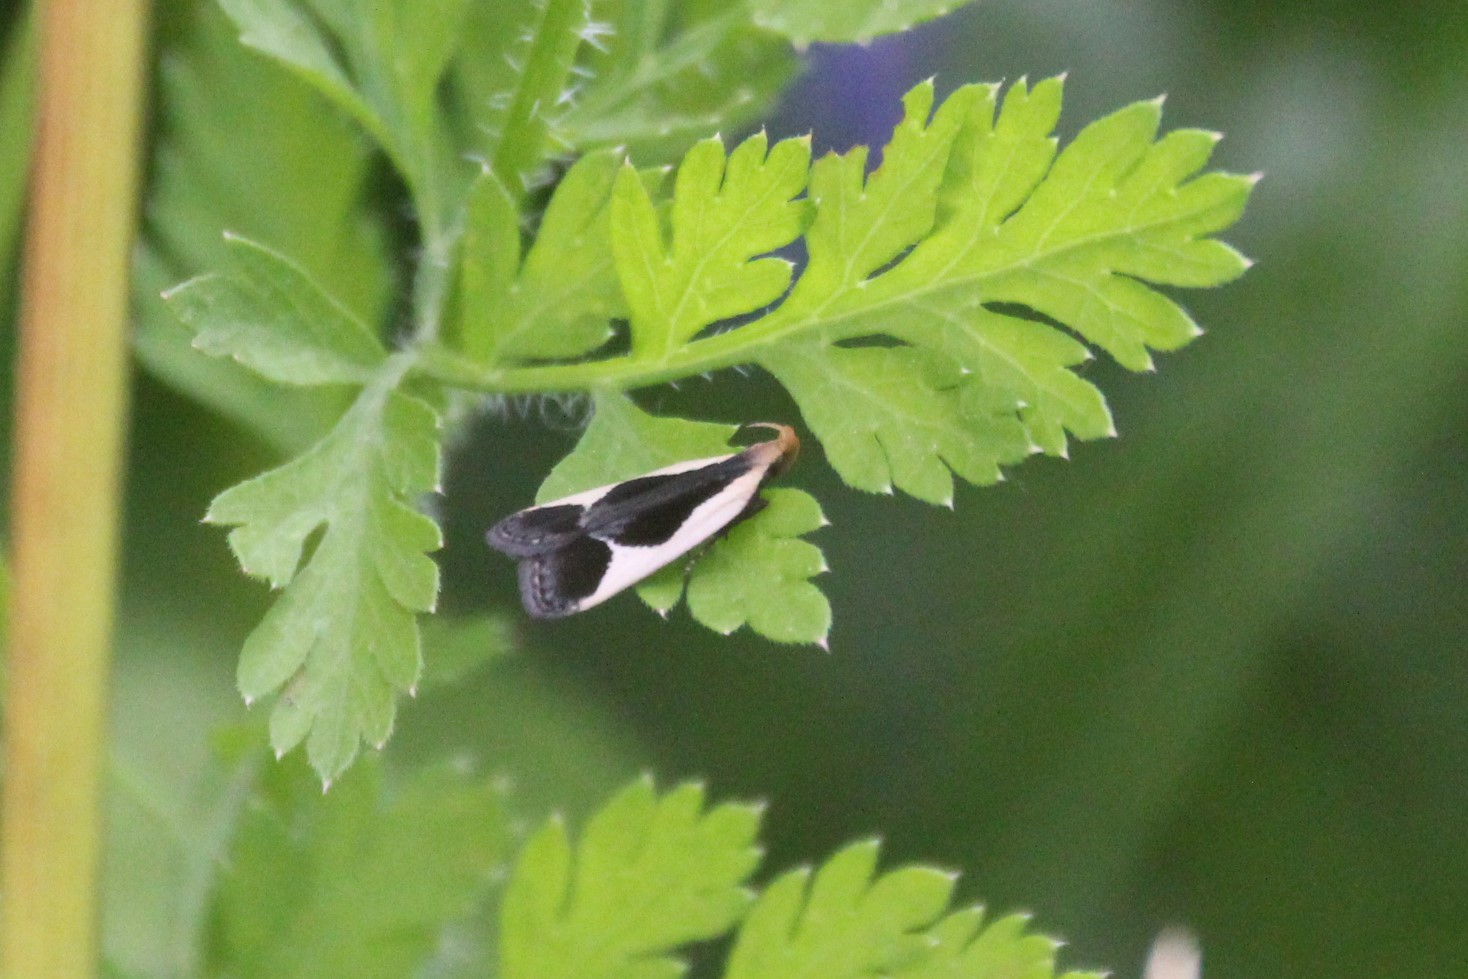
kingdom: Animalia
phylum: Arthropoda
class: Insecta
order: Lepidoptera
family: Gelechiidae
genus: Dichomeris
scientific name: Dichomeris flavocostella
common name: Cream-edged dichomeris moth
